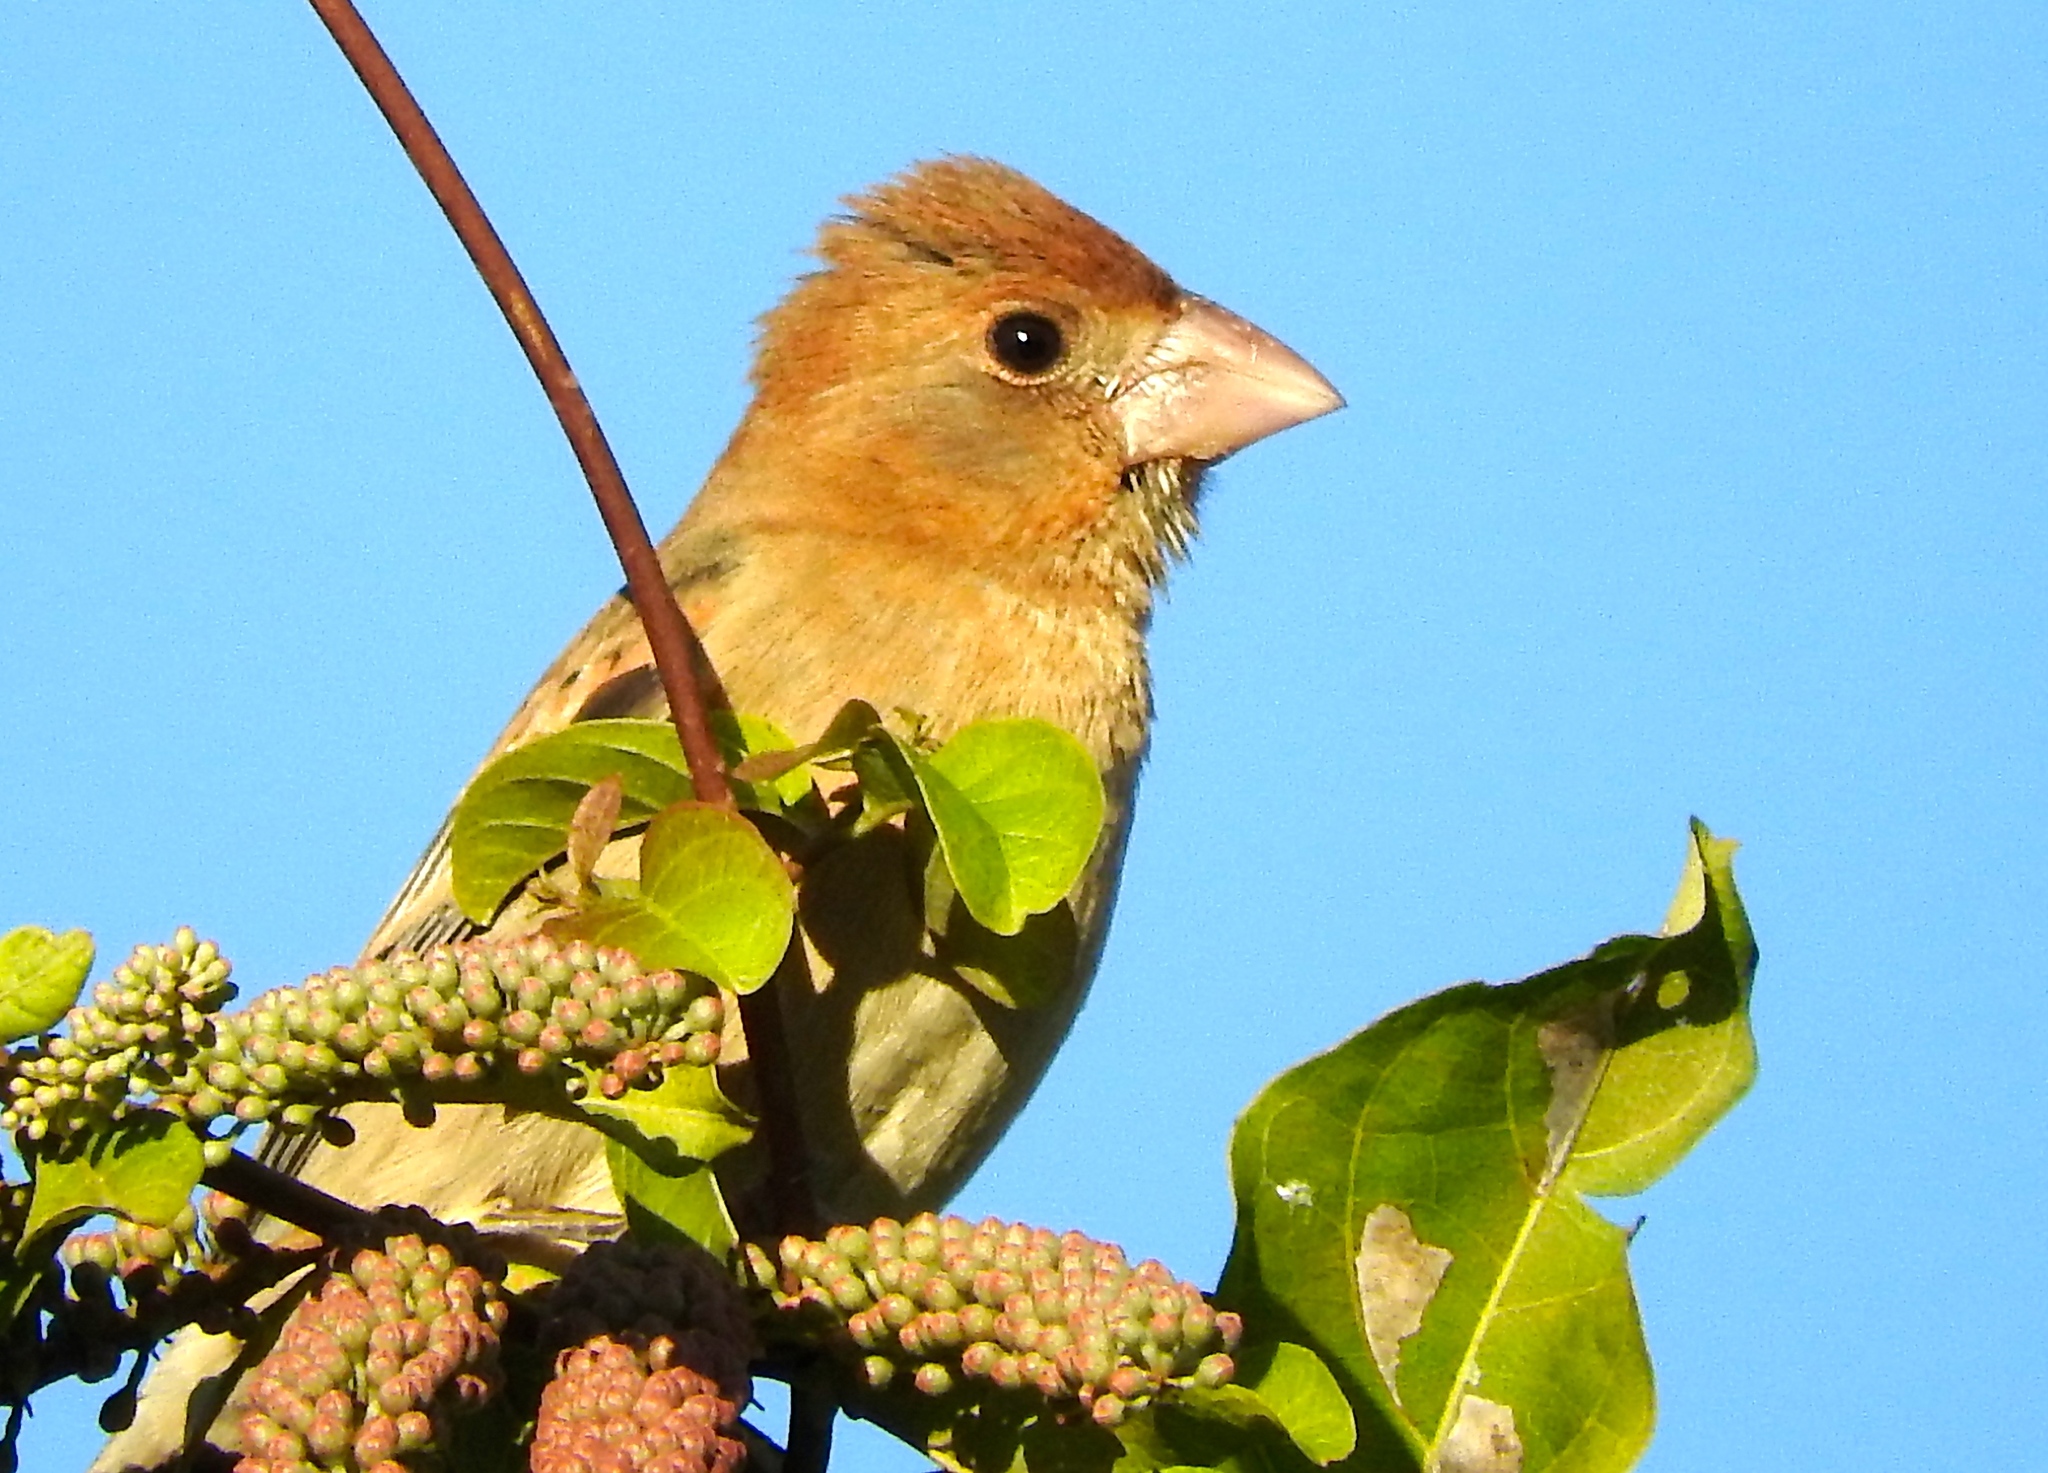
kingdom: Animalia
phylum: Chordata
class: Aves
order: Passeriformes
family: Cardinalidae
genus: Passerina
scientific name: Passerina caerulea
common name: Blue grosbeak
